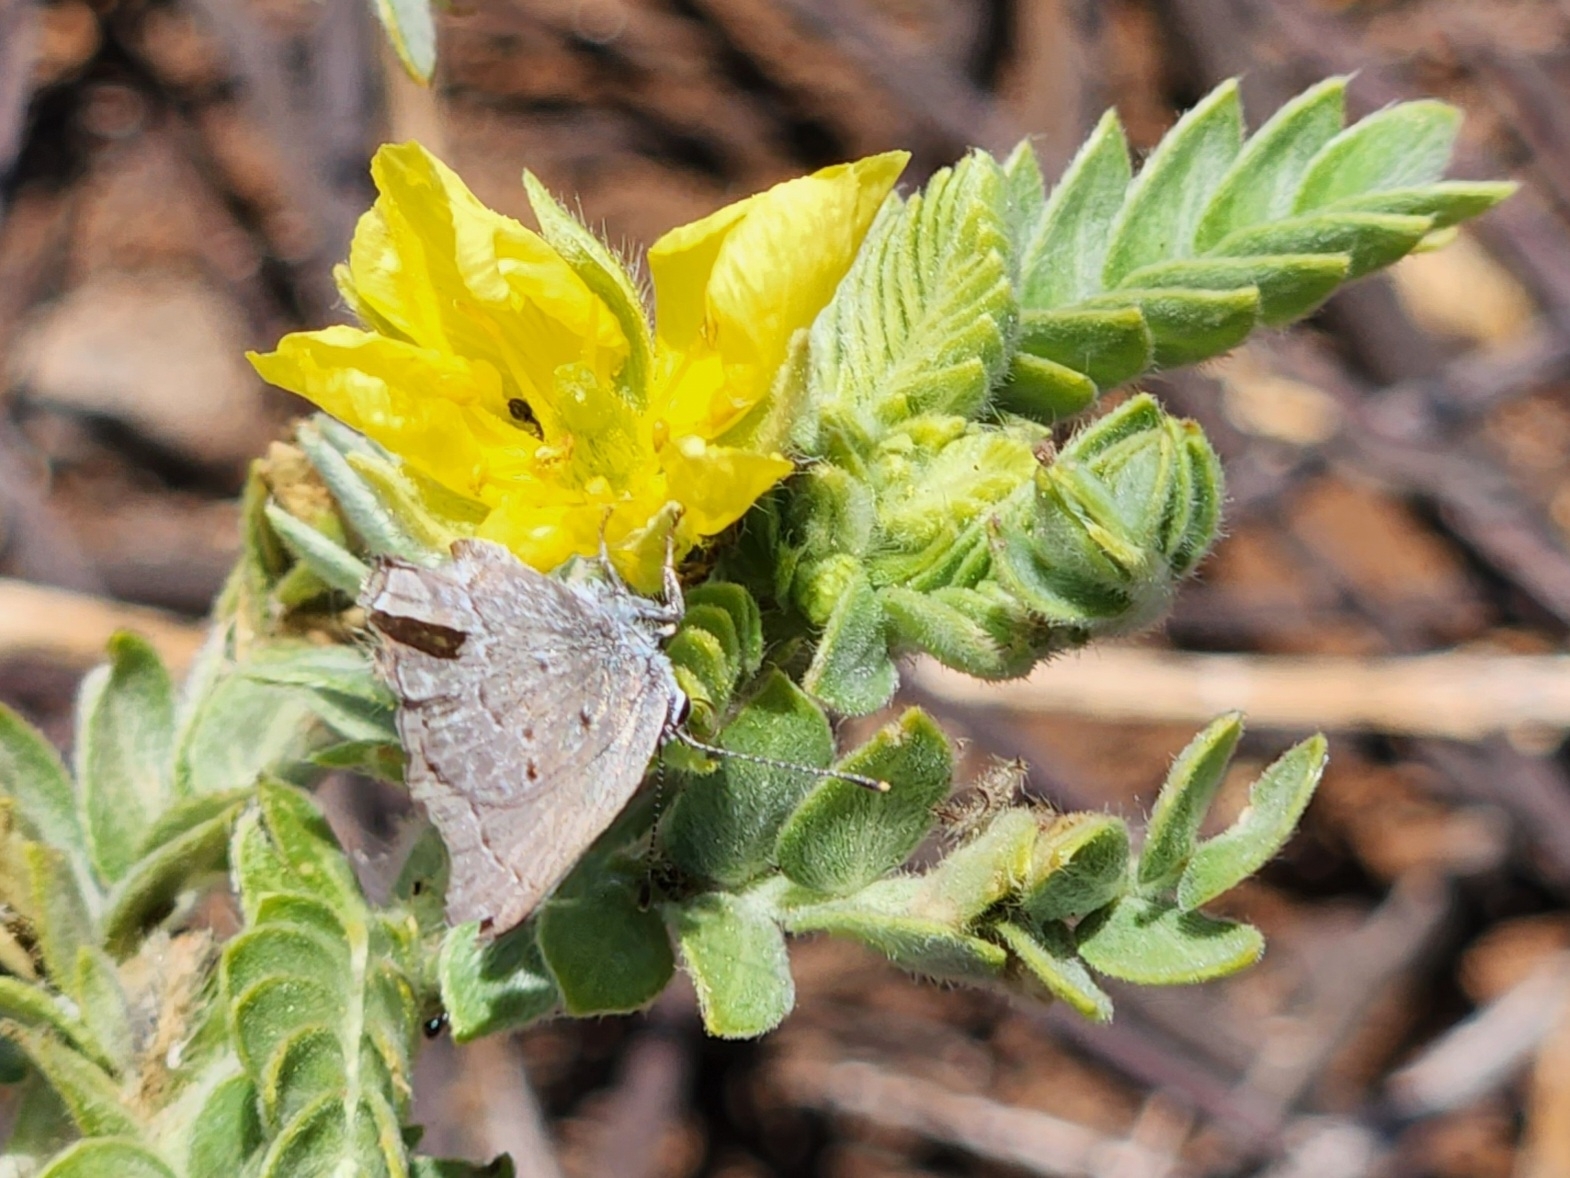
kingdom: Animalia
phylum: Arthropoda
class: Insecta
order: Lepidoptera
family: Lycaenidae
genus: Callicista
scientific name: Callicista columella
